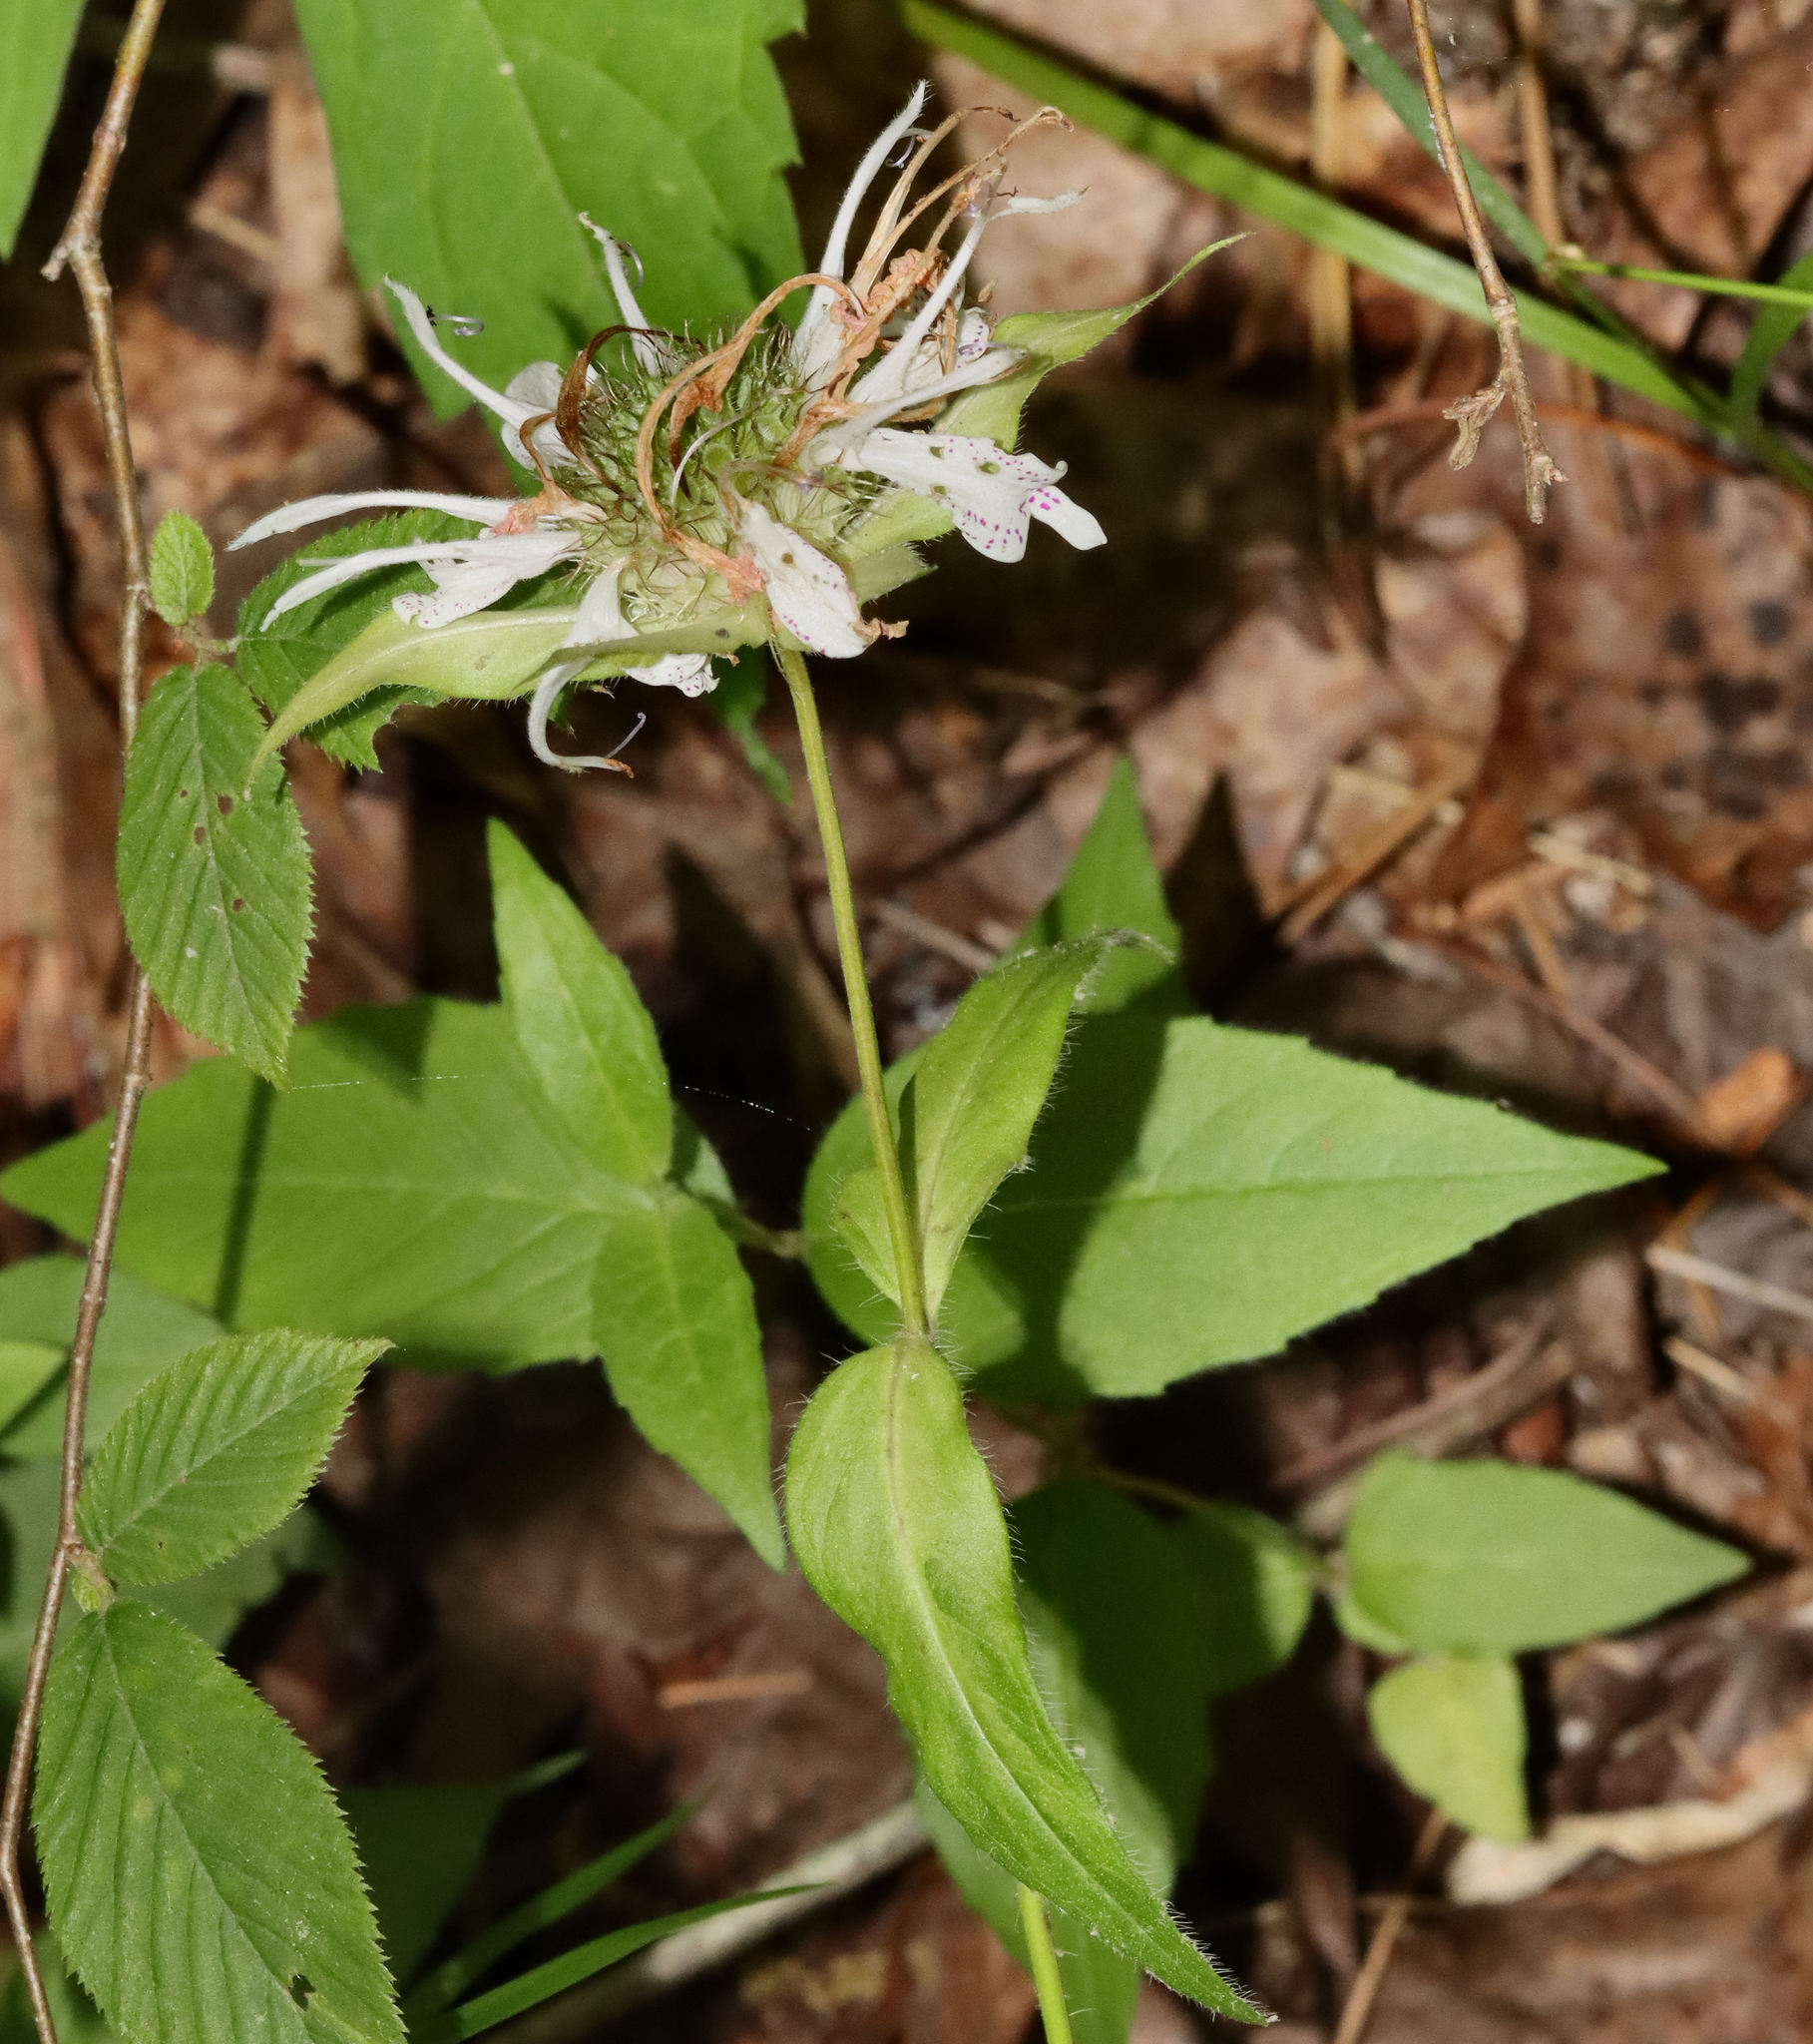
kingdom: Plantae
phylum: Tracheophyta
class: Magnoliopsida
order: Lamiales
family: Lamiaceae
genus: Monarda
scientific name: Monarda bradburiana
